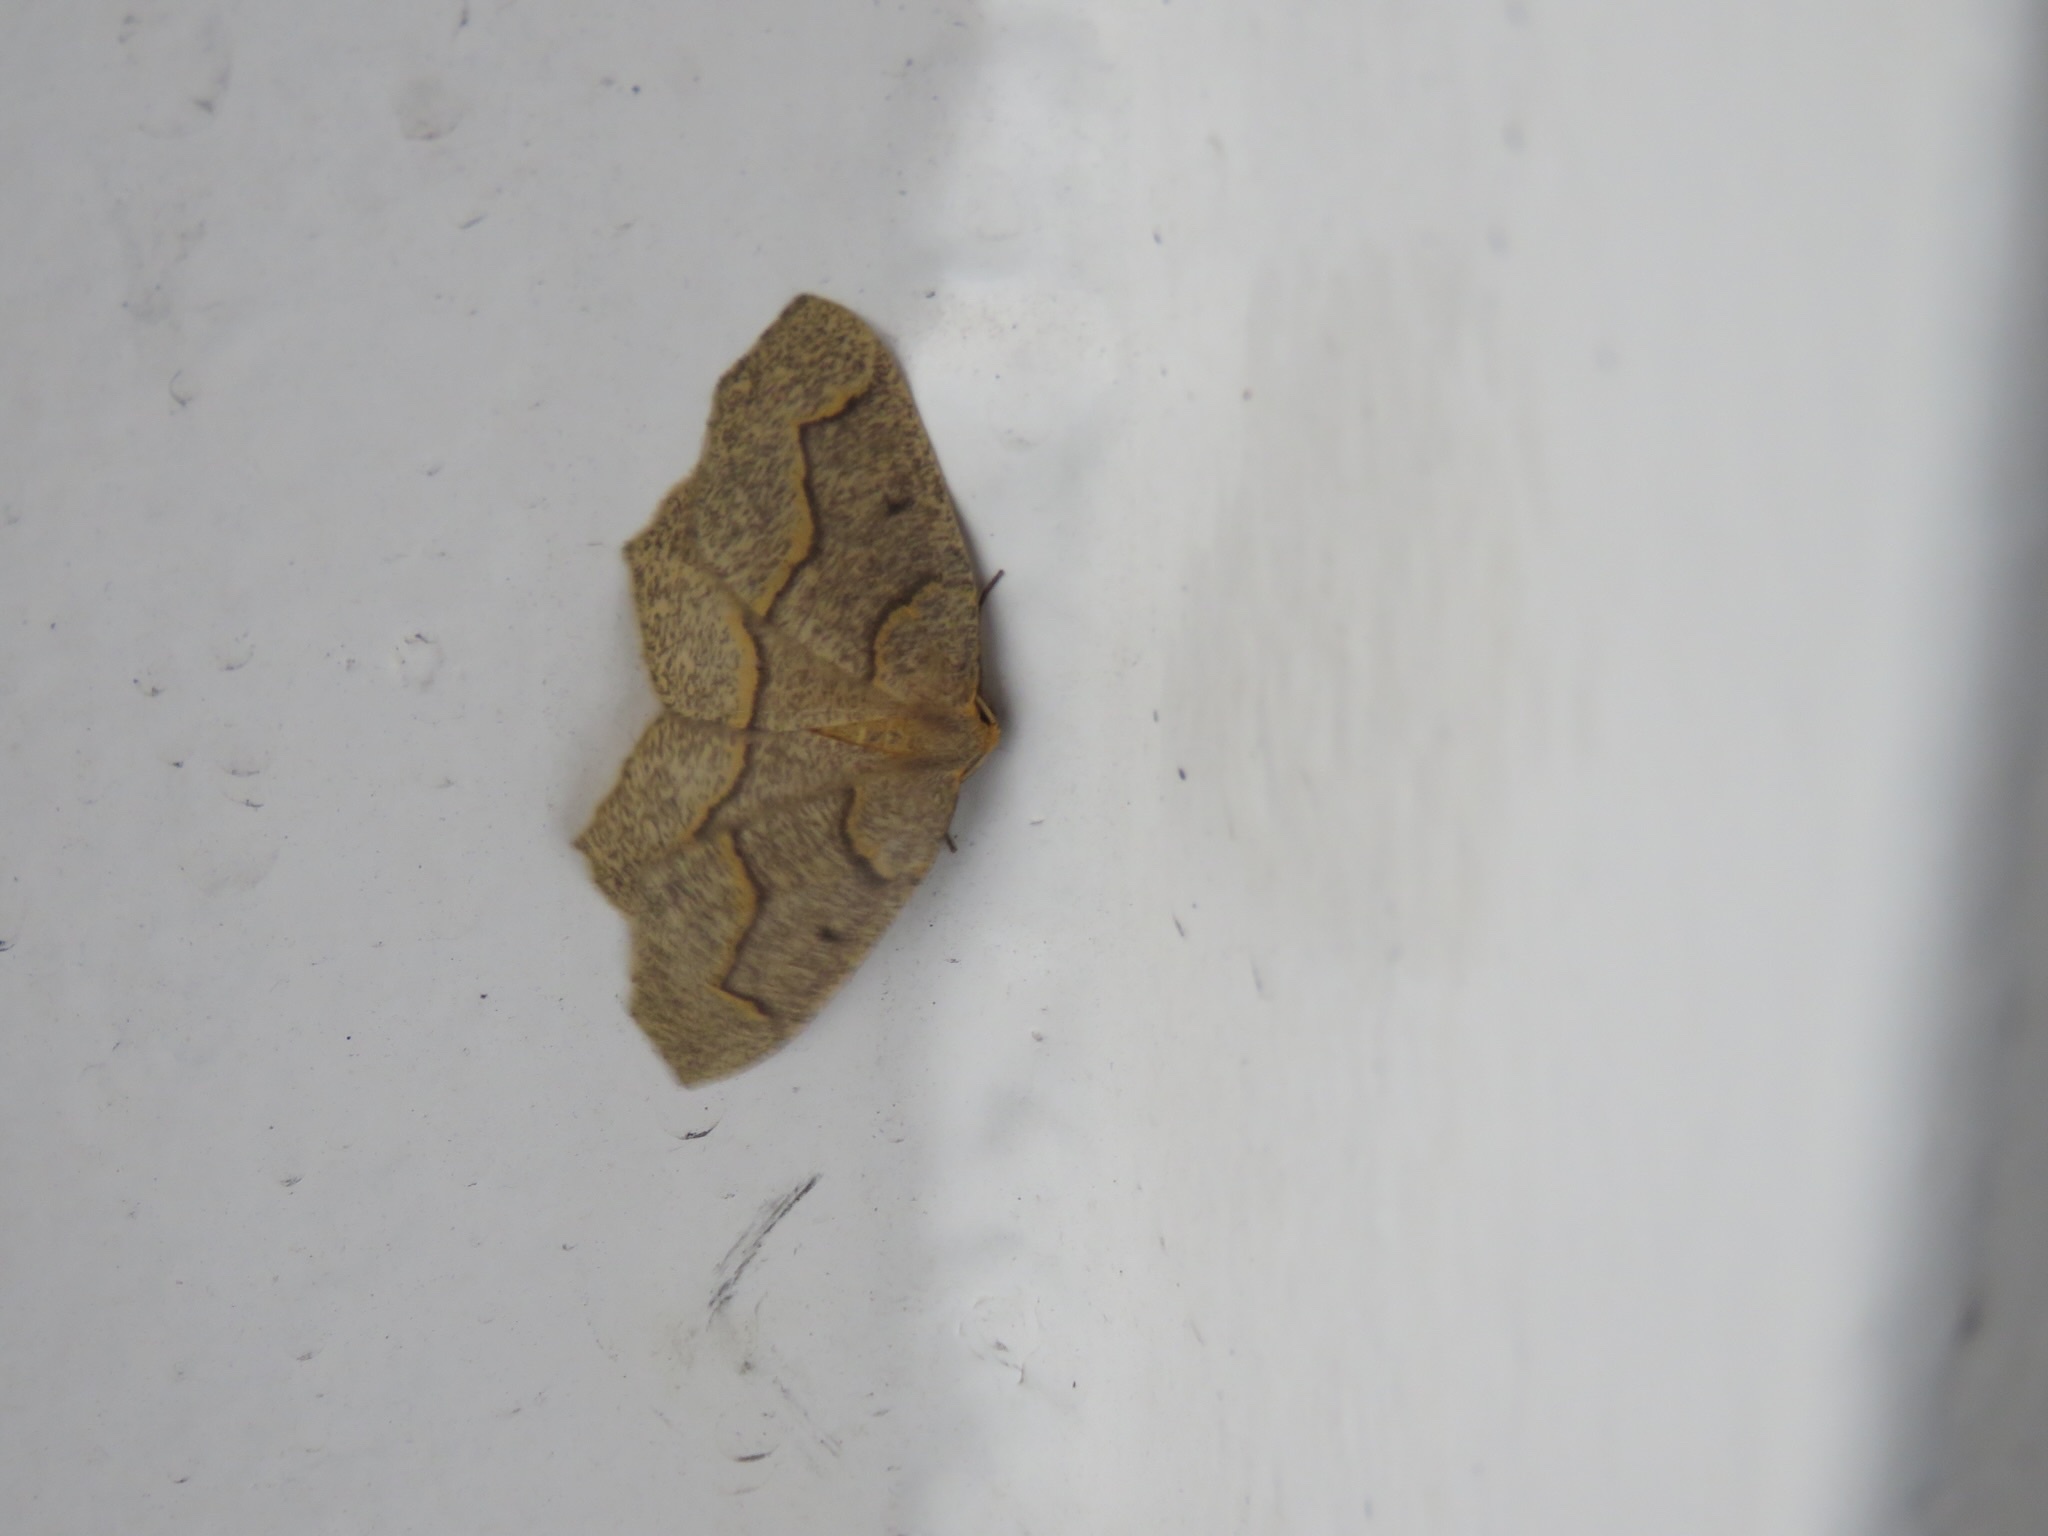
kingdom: Animalia
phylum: Arthropoda
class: Insecta
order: Lepidoptera
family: Geometridae
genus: Lambdina
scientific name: Lambdina fiscellaria
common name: Hemlock looper
